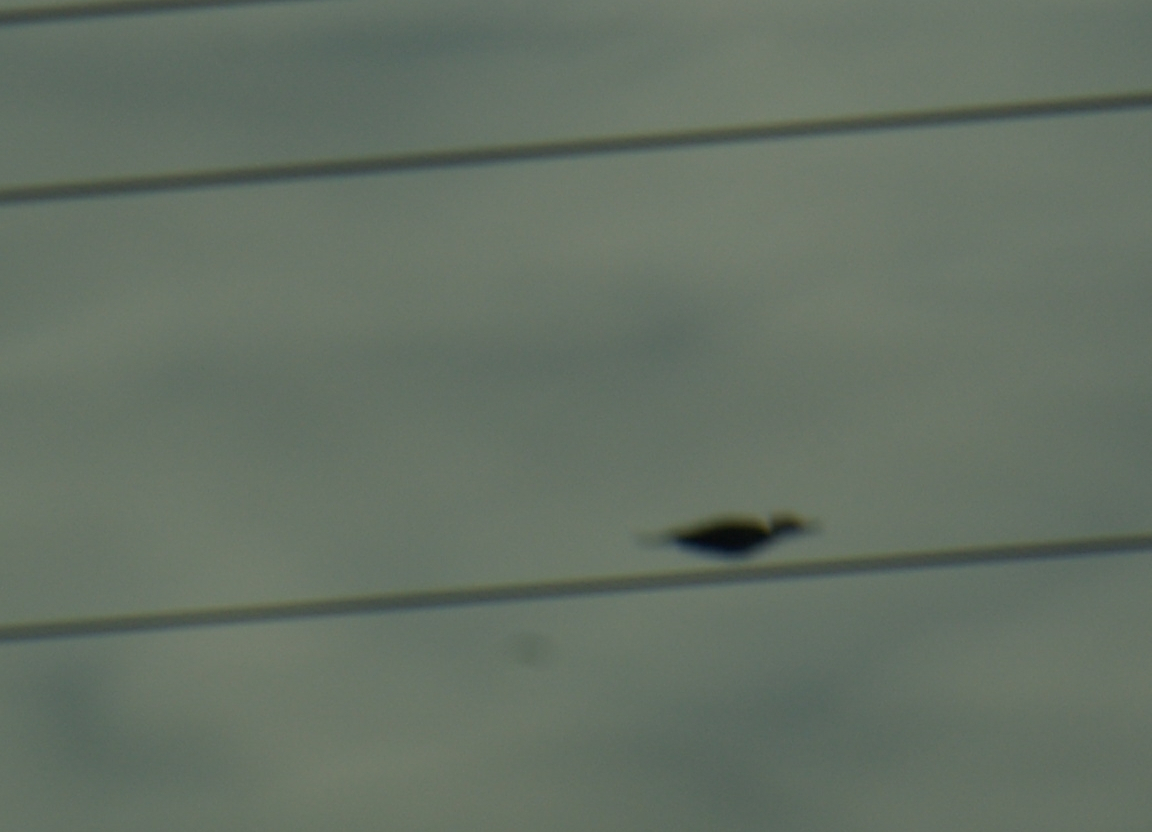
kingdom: Animalia
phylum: Chordata
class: Aves
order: Piciformes
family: Picidae
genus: Dryocopus
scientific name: Dryocopus pileatus
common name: Pileated woodpecker
